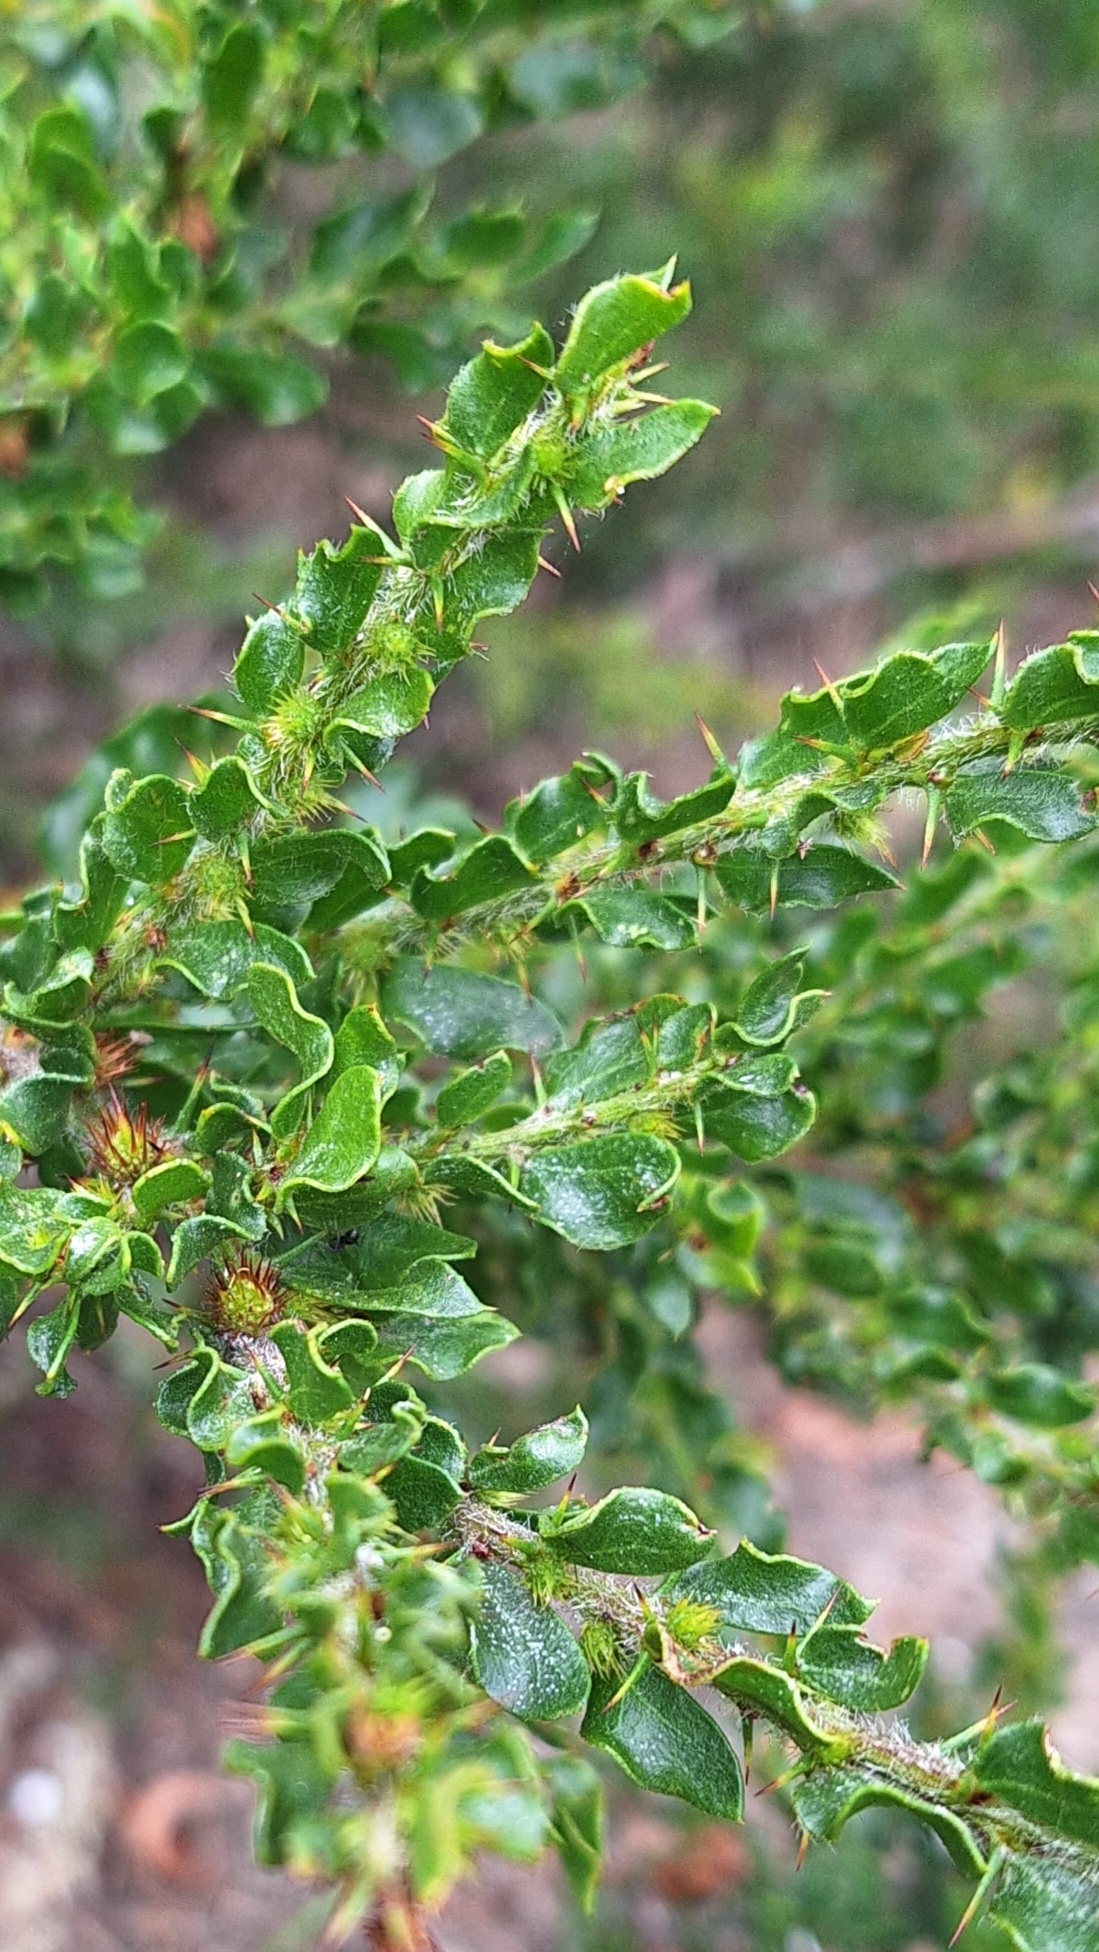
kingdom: Plantae
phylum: Tracheophyta
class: Magnoliopsida
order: Fabales
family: Fabaceae
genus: Acacia
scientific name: Acacia paradoxa
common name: Paradox acacia
